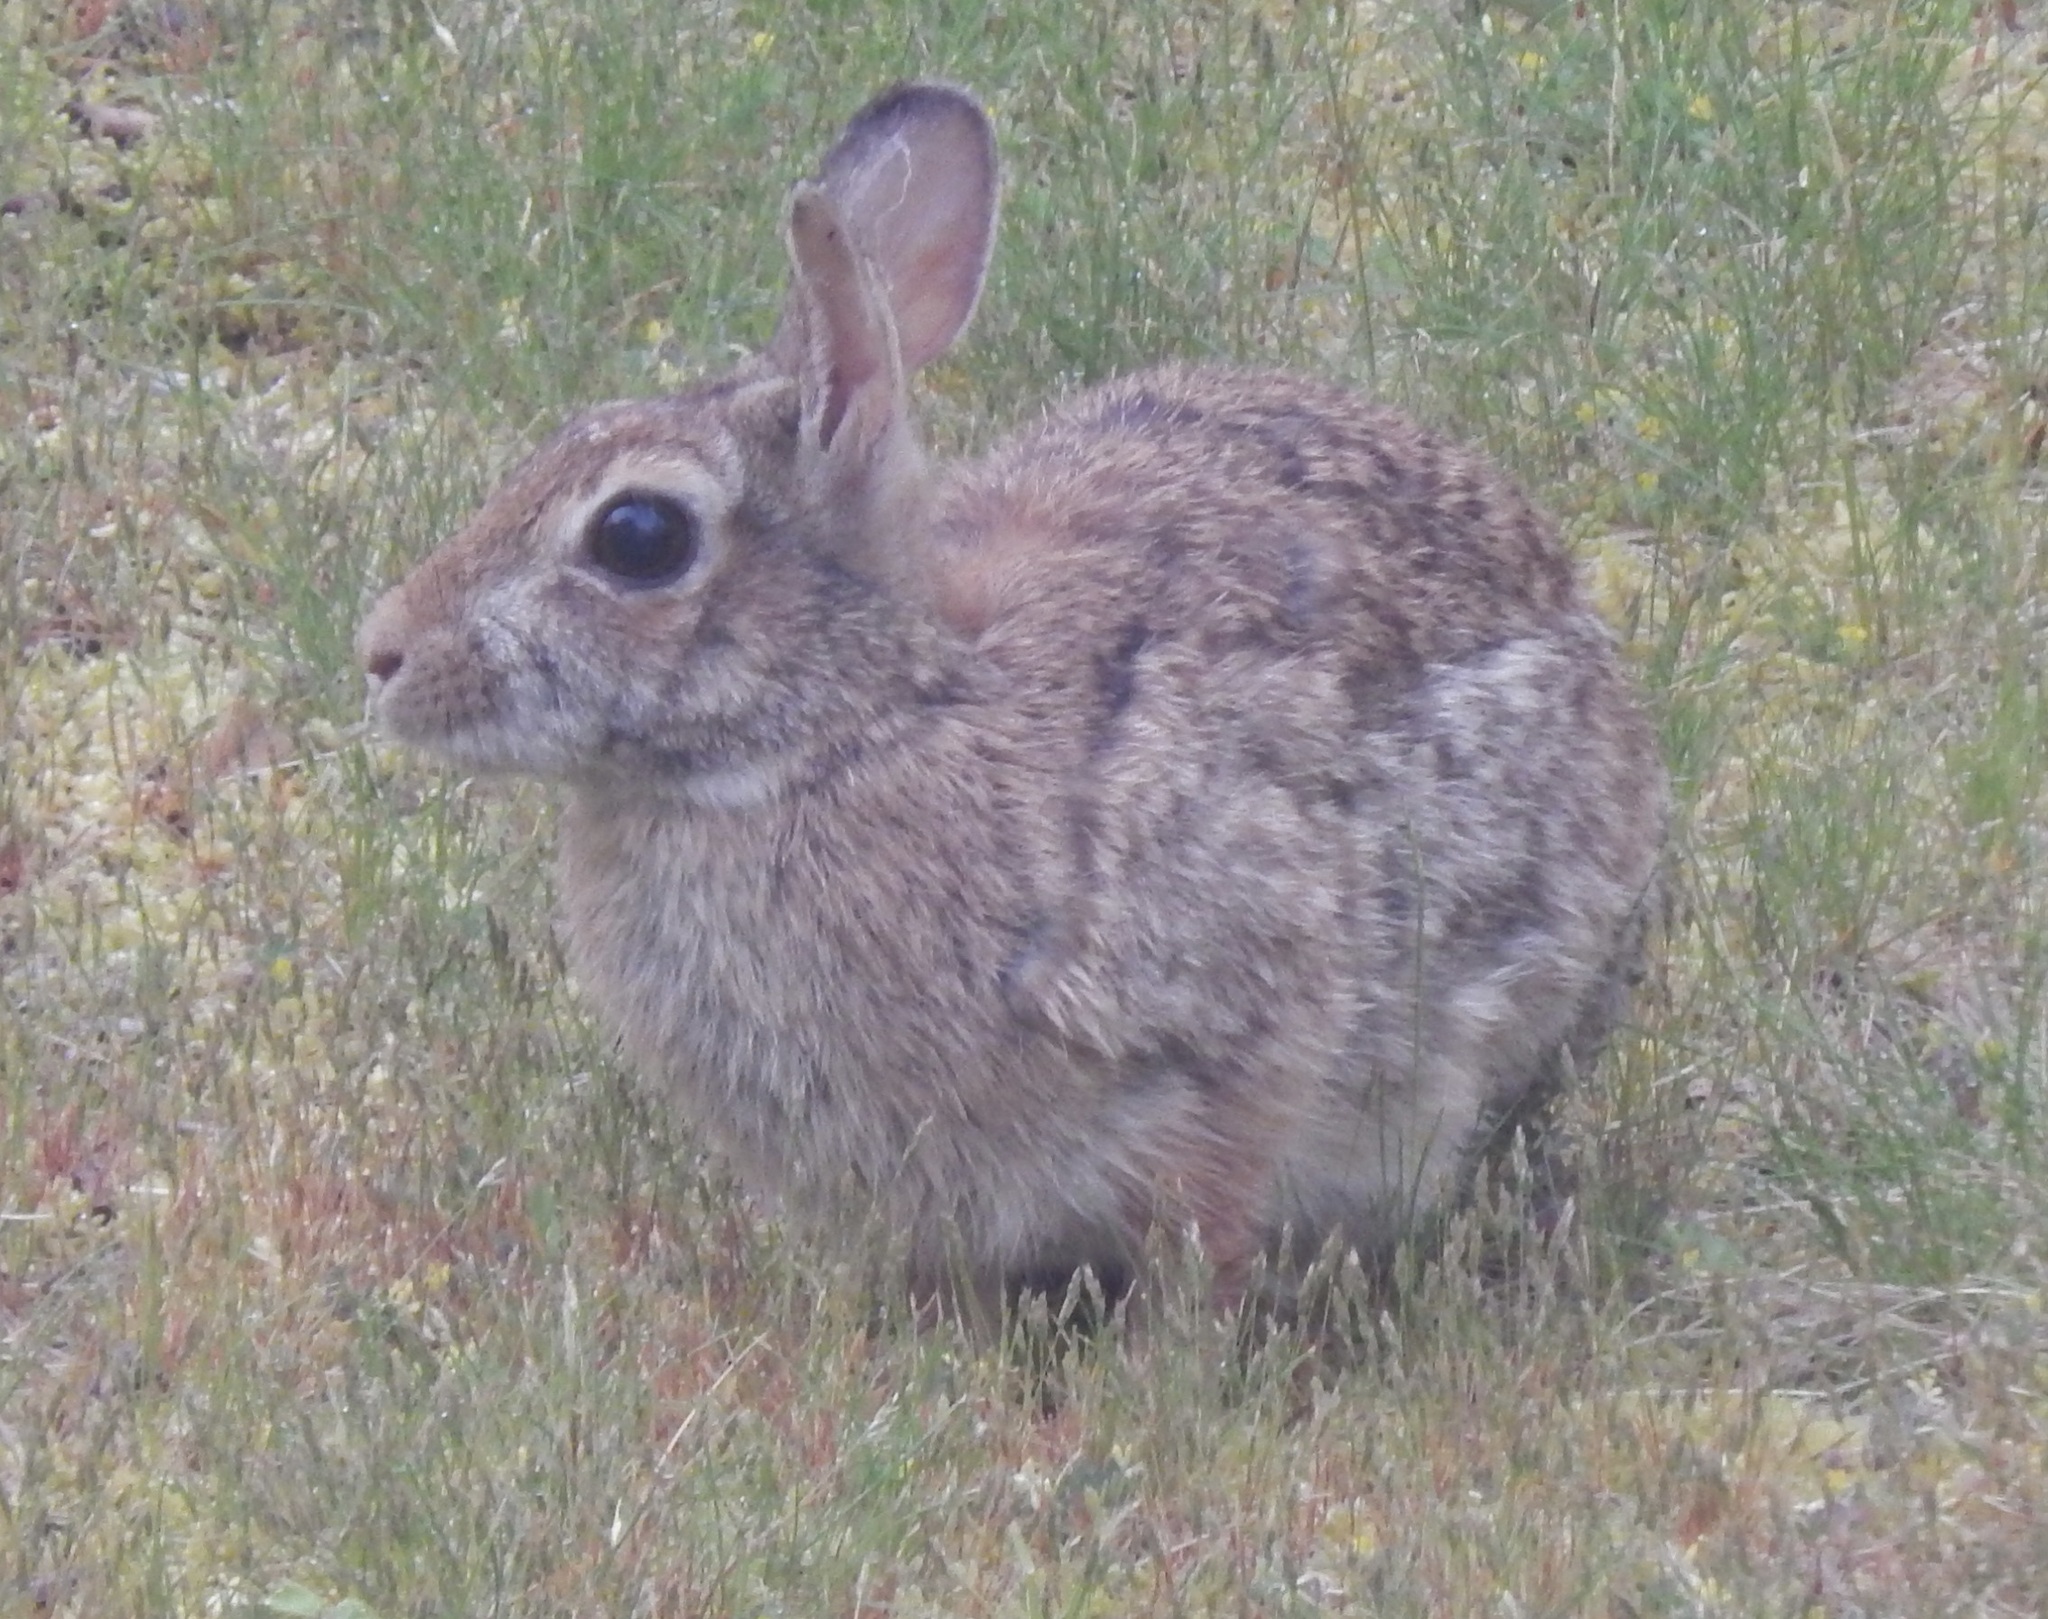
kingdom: Animalia
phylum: Chordata
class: Mammalia
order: Lagomorpha
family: Leporidae
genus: Sylvilagus
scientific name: Sylvilagus floridanus
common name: Eastern cottontail
